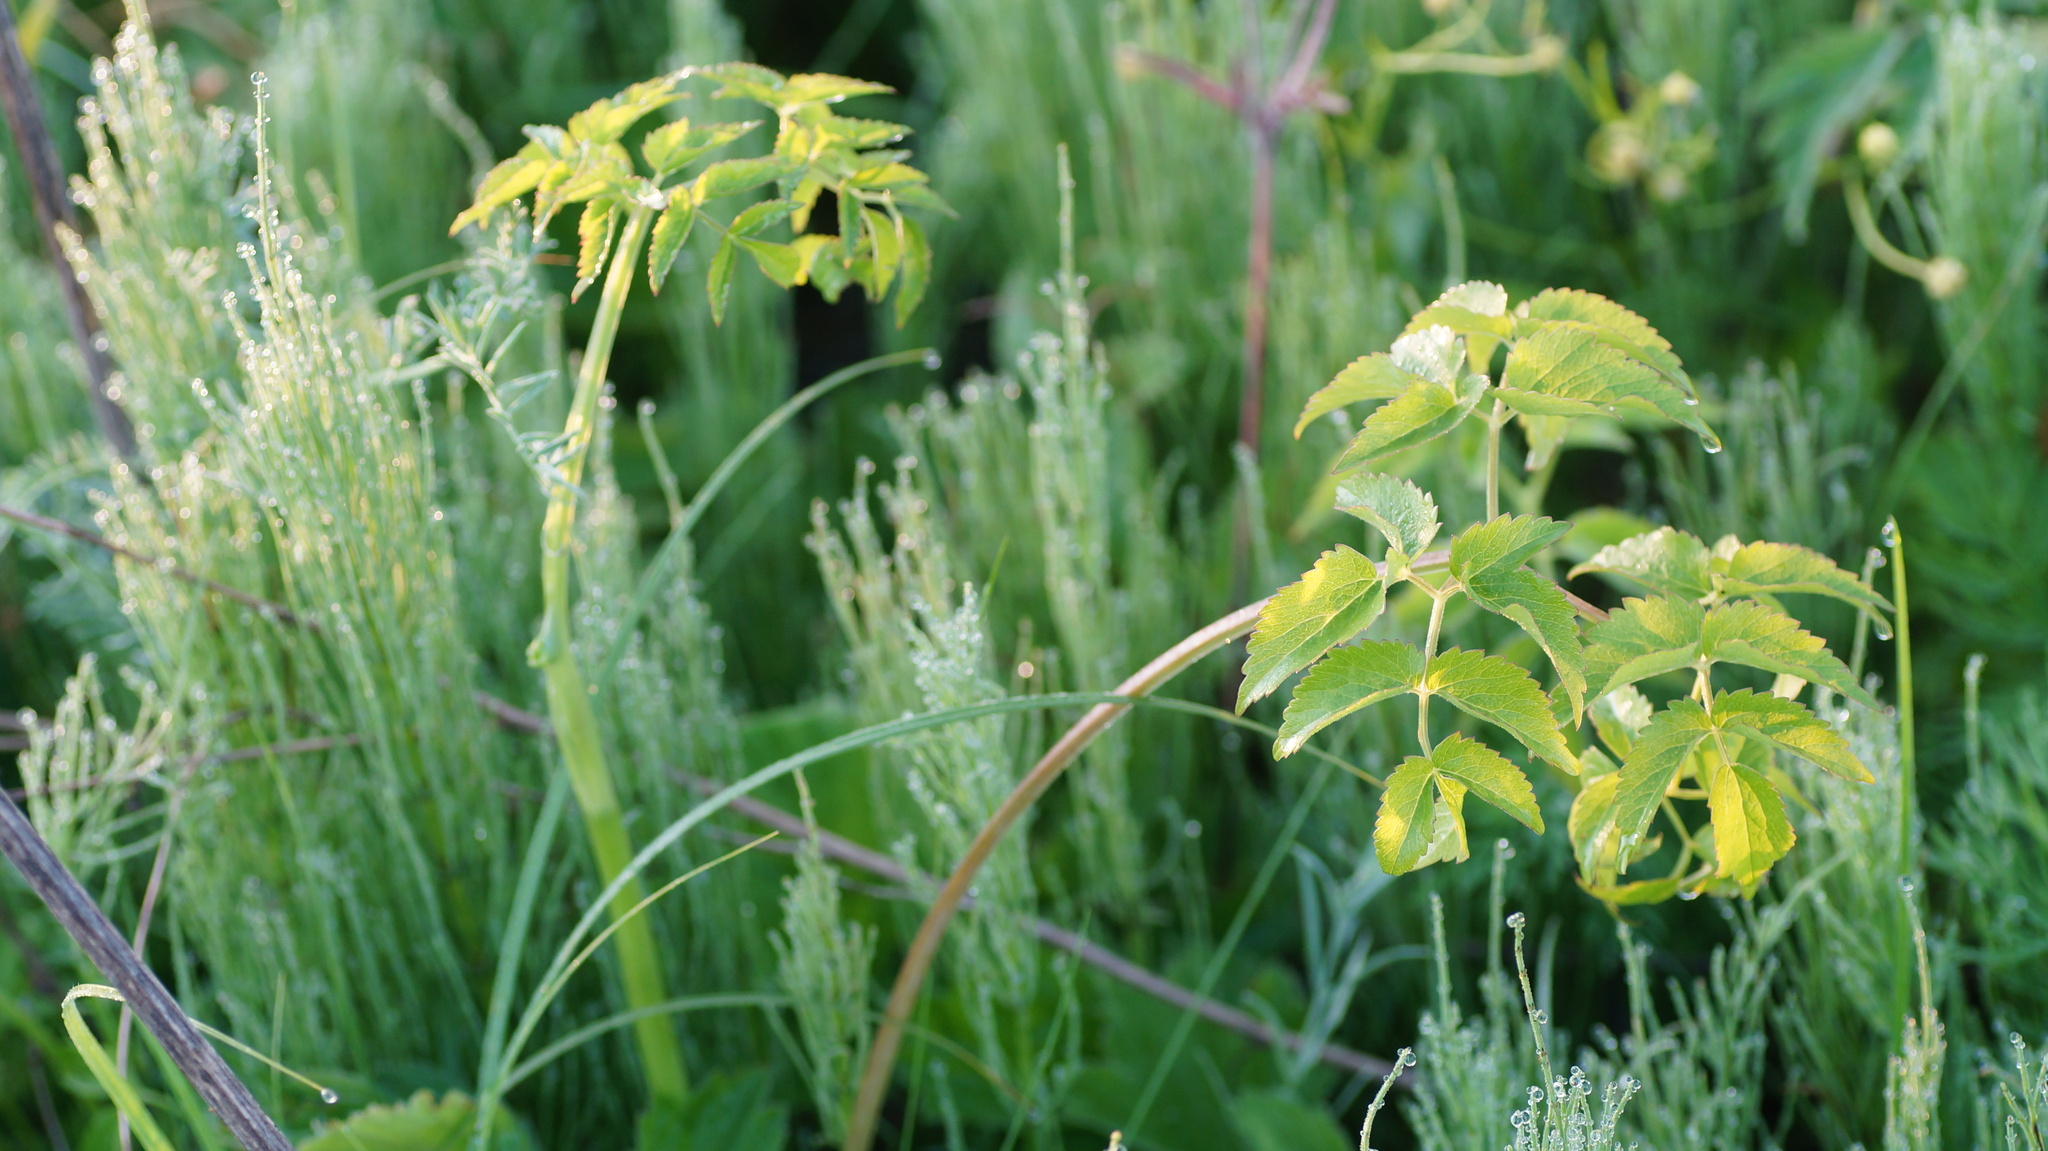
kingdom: Plantae
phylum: Tracheophyta
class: Magnoliopsida
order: Apiales
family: Apiaceae
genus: Ostericum
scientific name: Ostericum palustre
